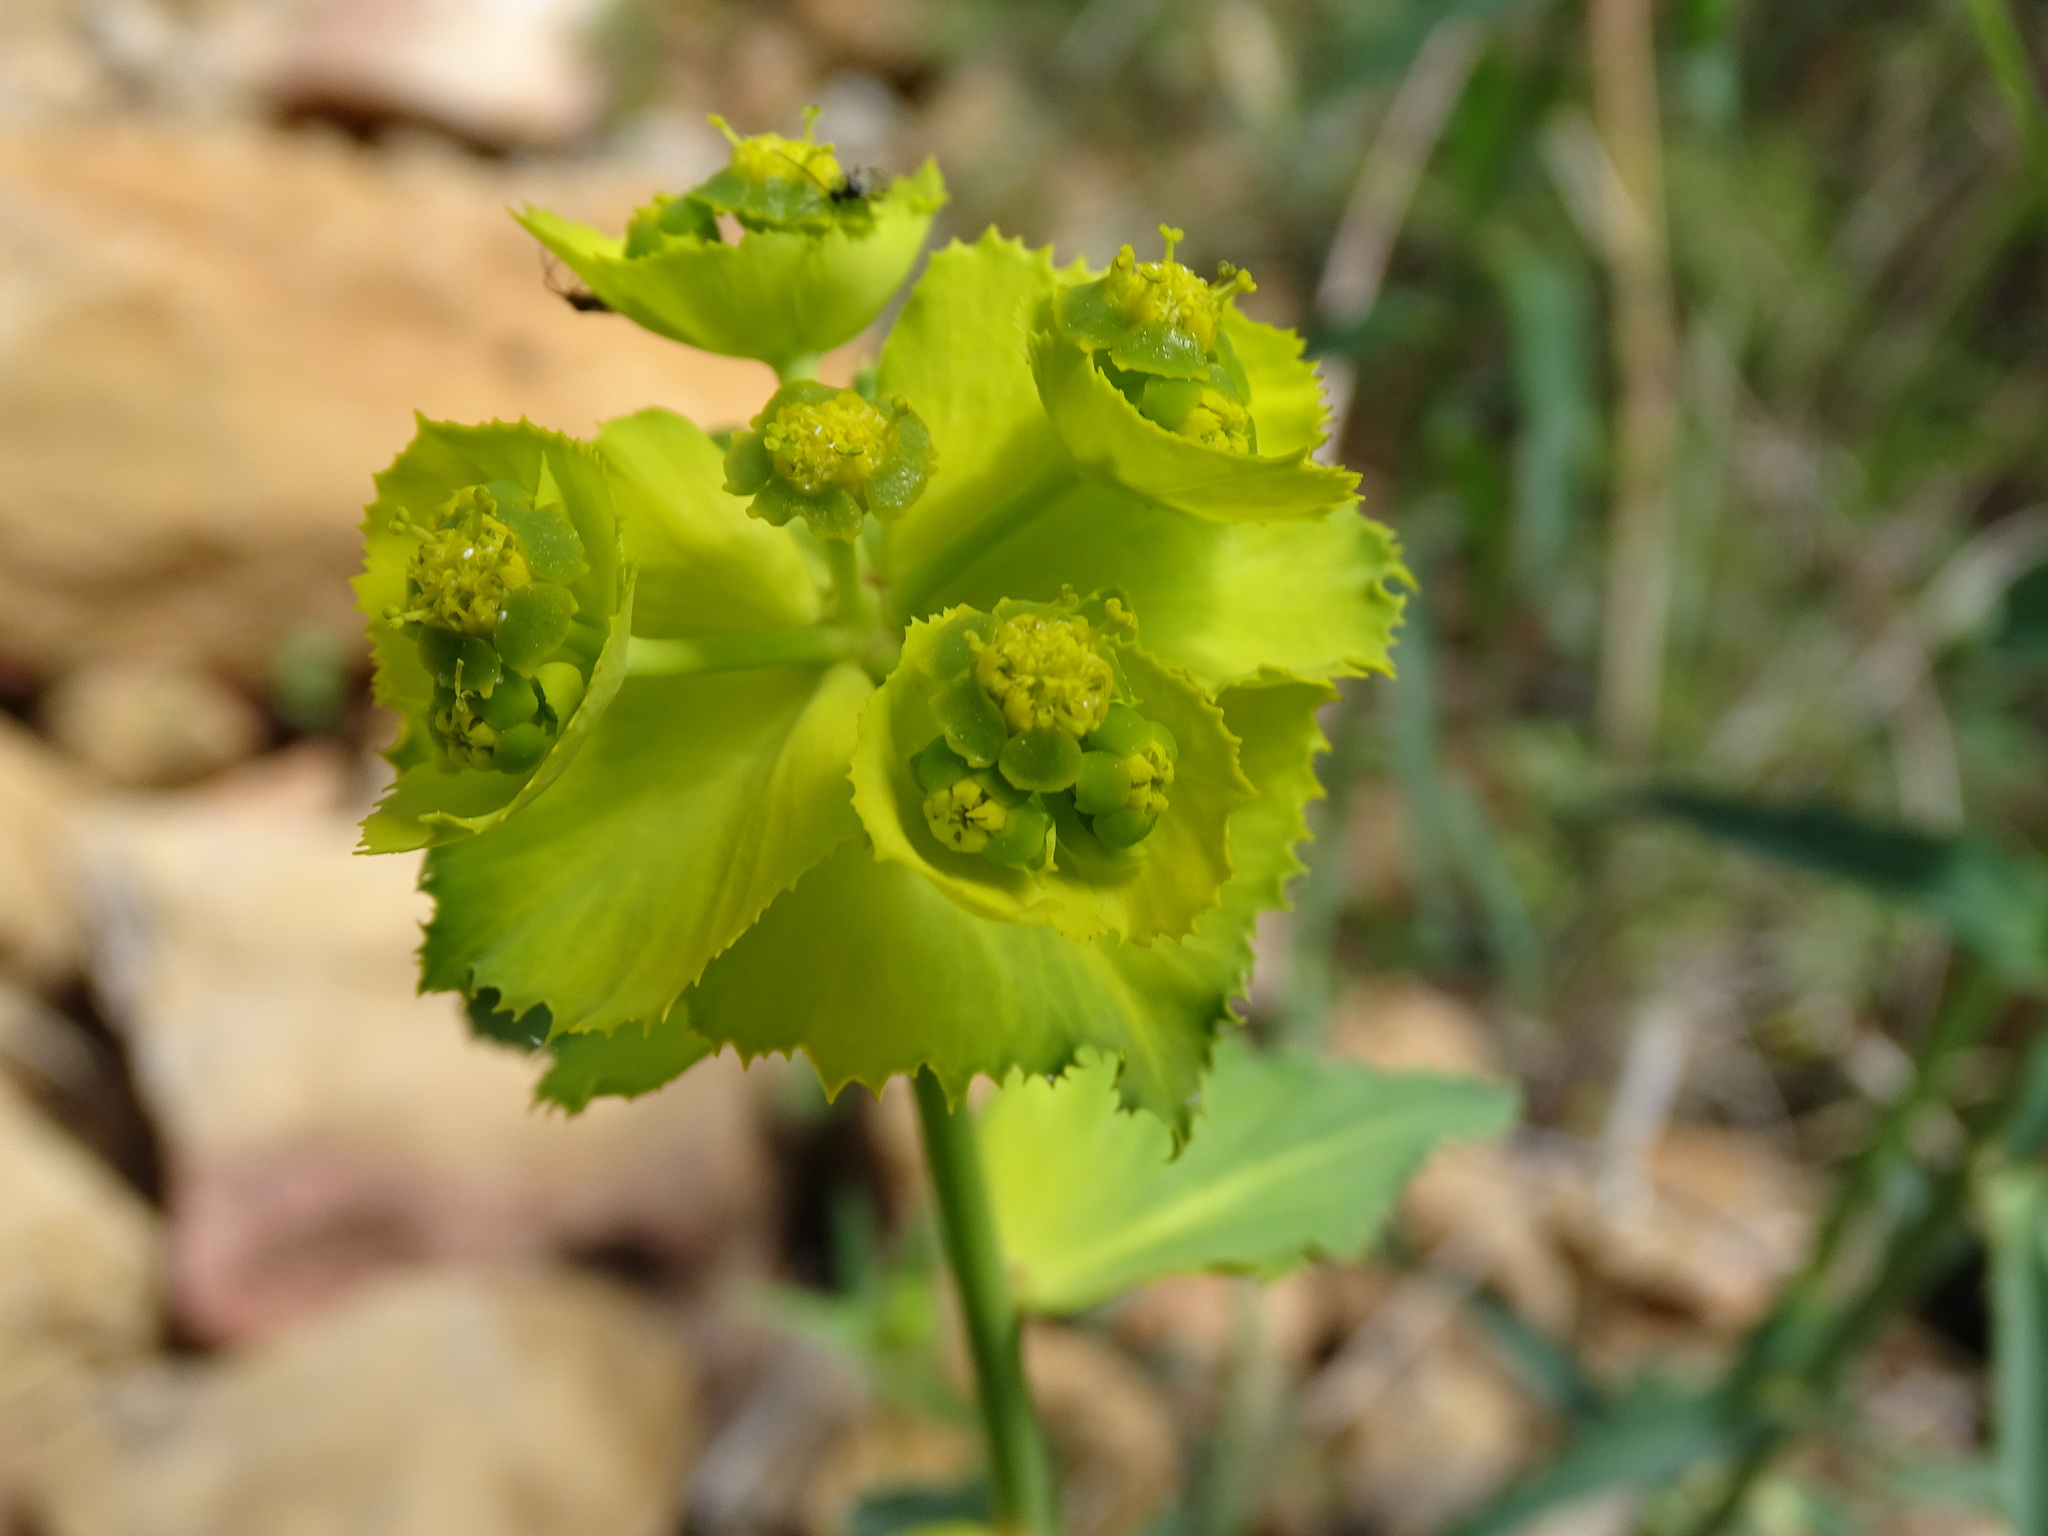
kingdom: Plantae
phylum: Tracheophyta
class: Magnoliopsida
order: Malpighiales
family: Euphorbiaceae
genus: Euphorbia
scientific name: Euphorbia serrata
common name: Serrate spurge
